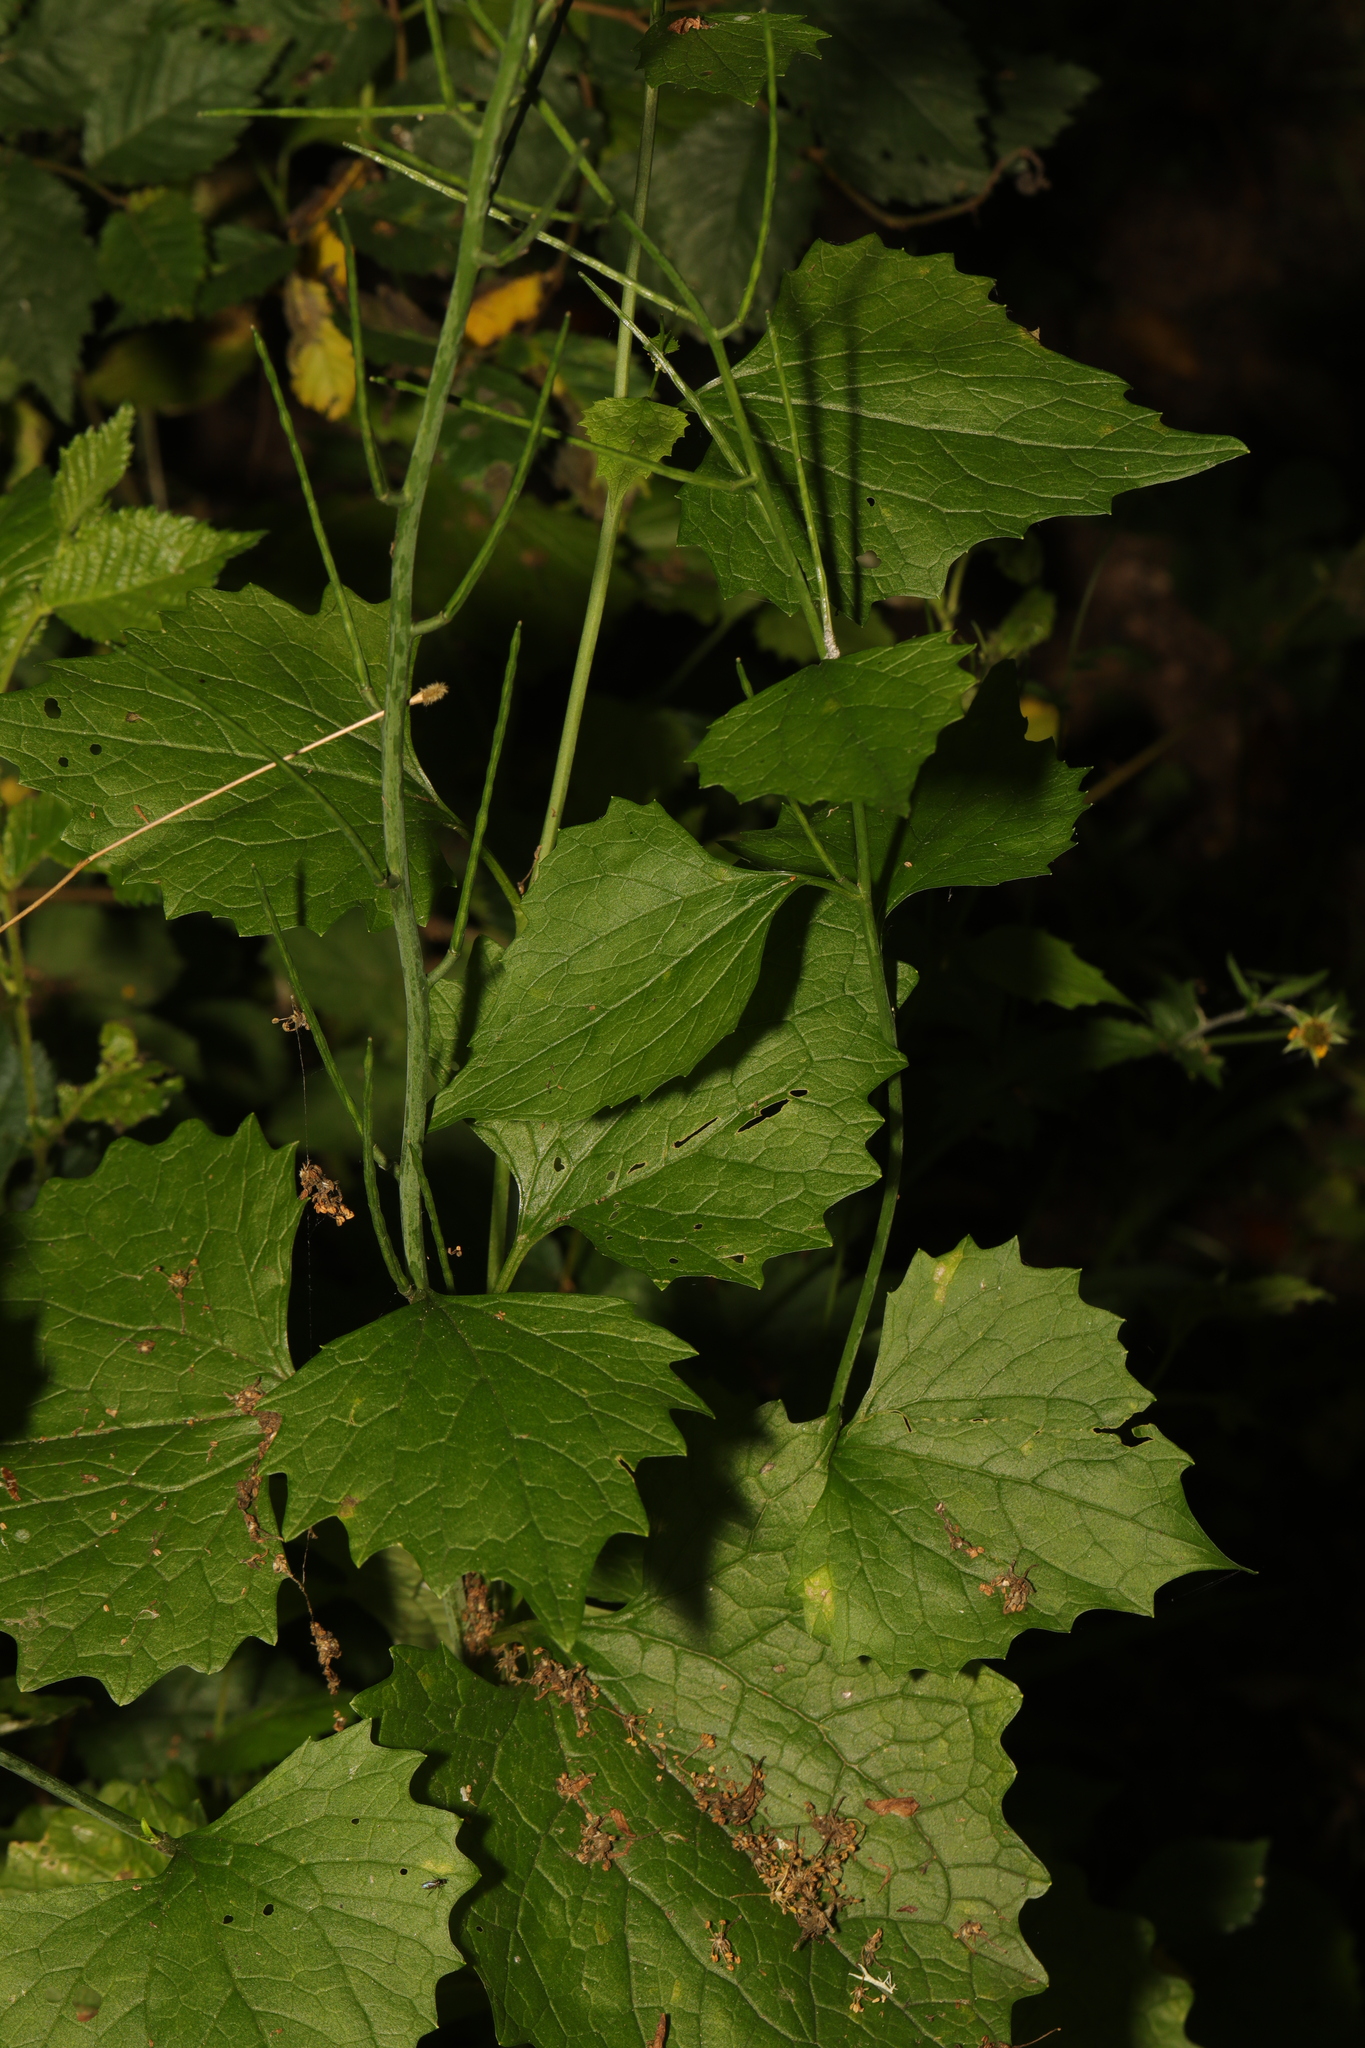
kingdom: Plantae
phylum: Tracheophyta
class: Magnoliopsida
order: Brassicales
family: Brassicaceae
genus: Alliaria
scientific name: Alliaria petiolata
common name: Garlic mustard
